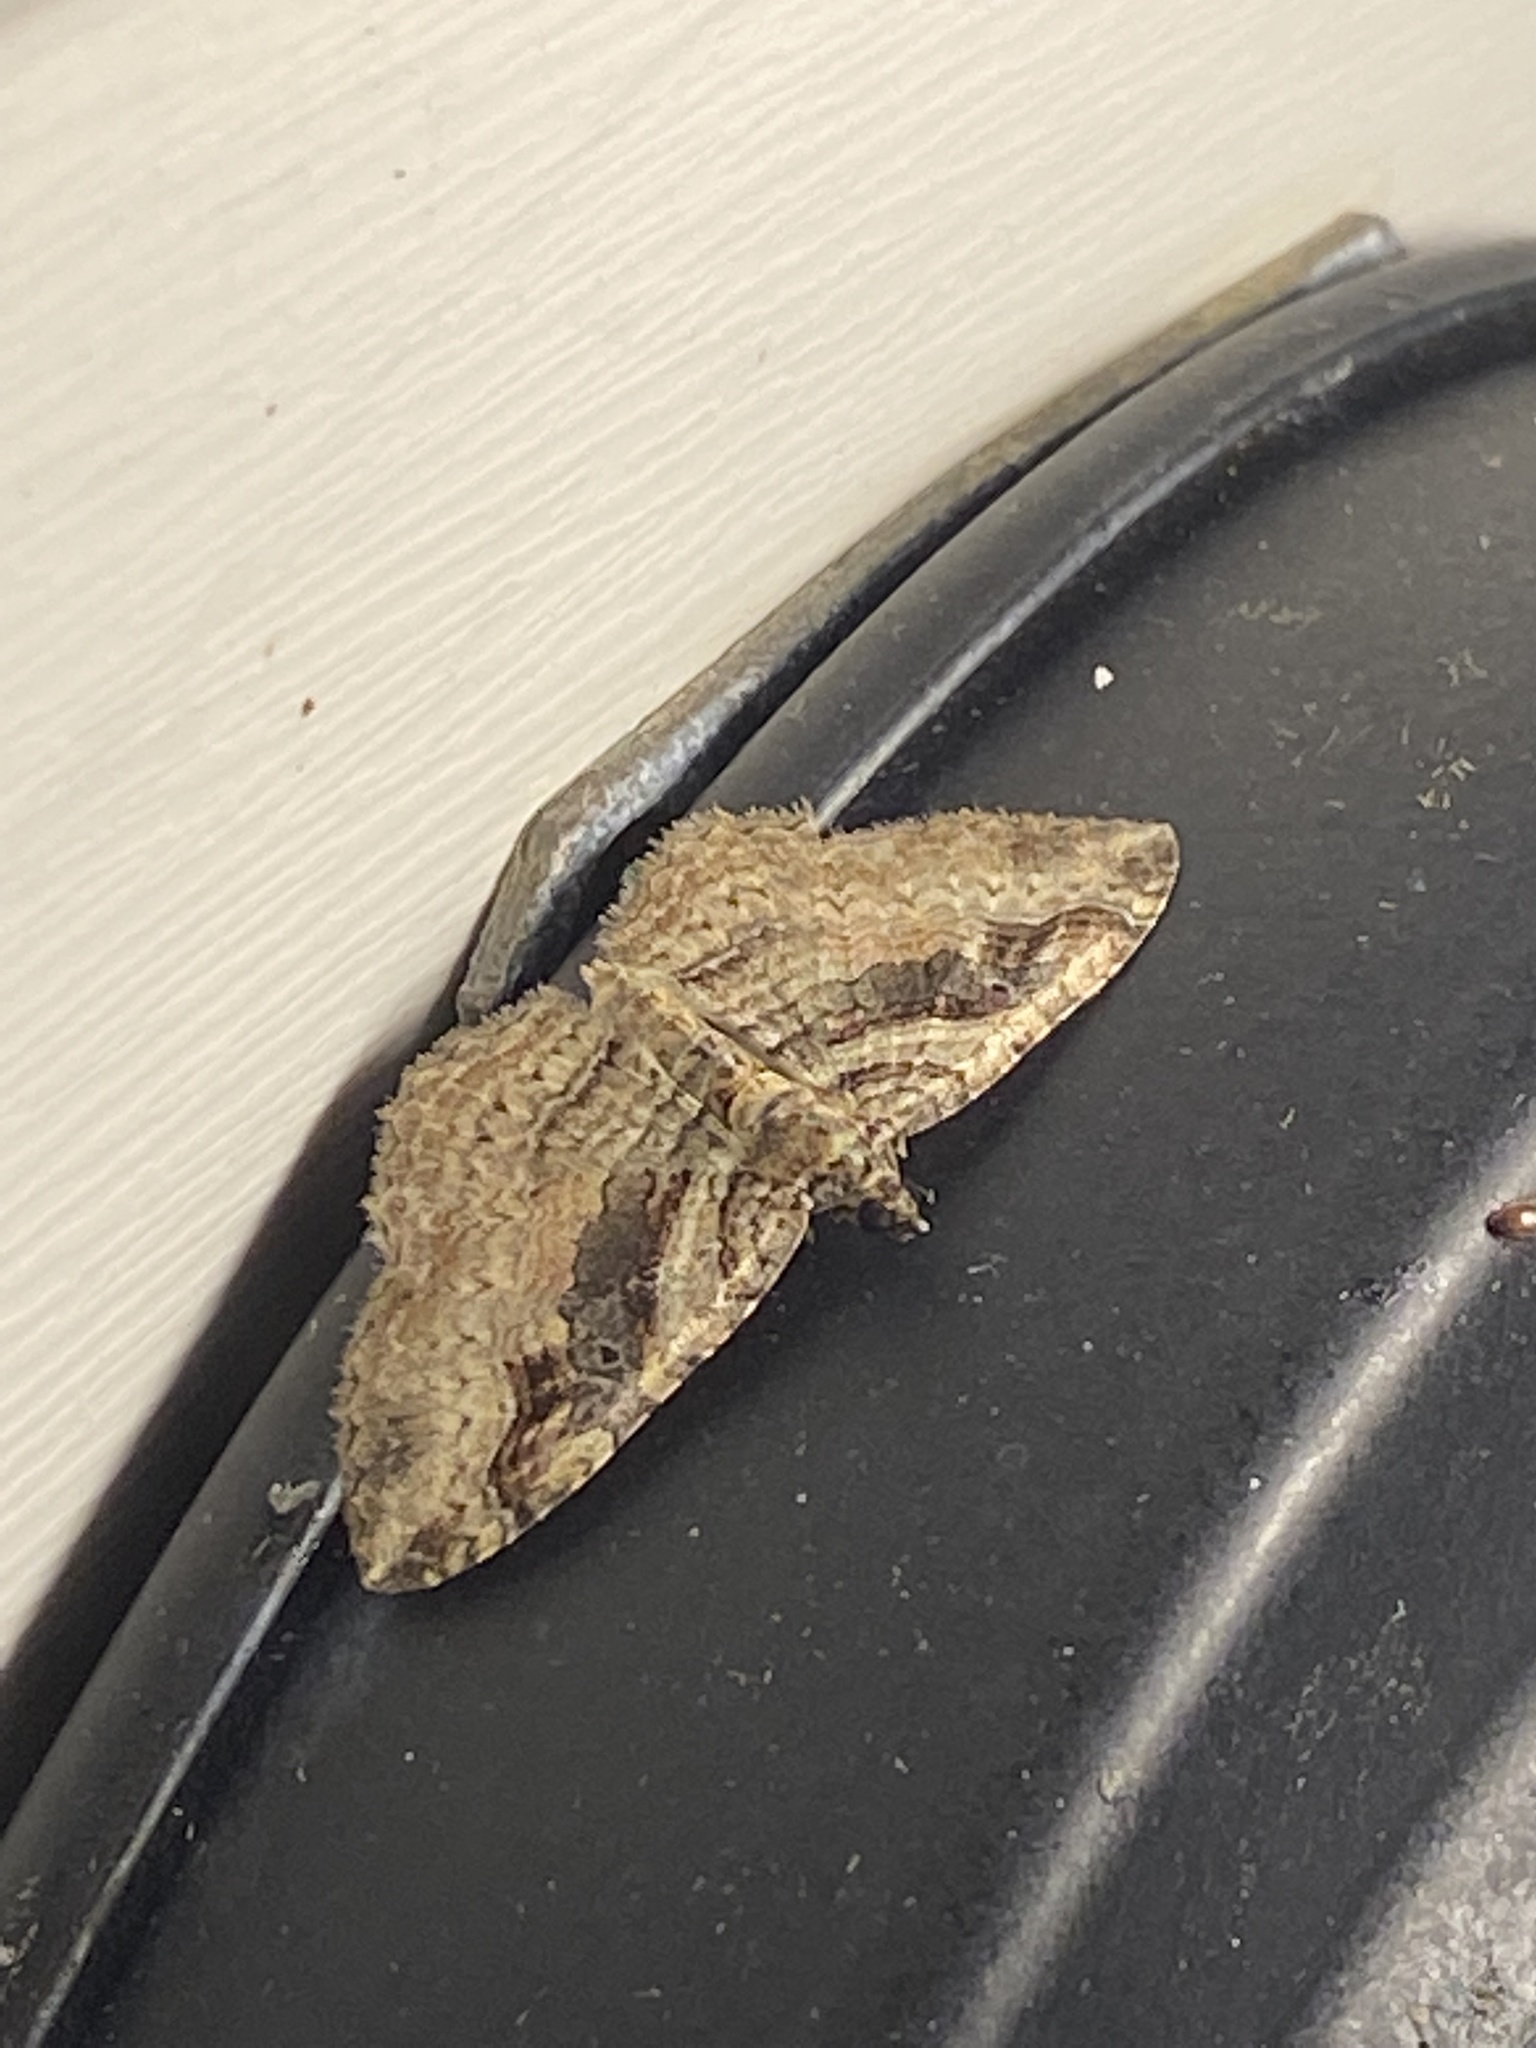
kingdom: Animalia
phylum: Arthropoda
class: Insecta
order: Lepidoptera
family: Geometridae
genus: Costaconvexa
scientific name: Costaconvexa centrostrigaria
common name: Bent-line carpet
